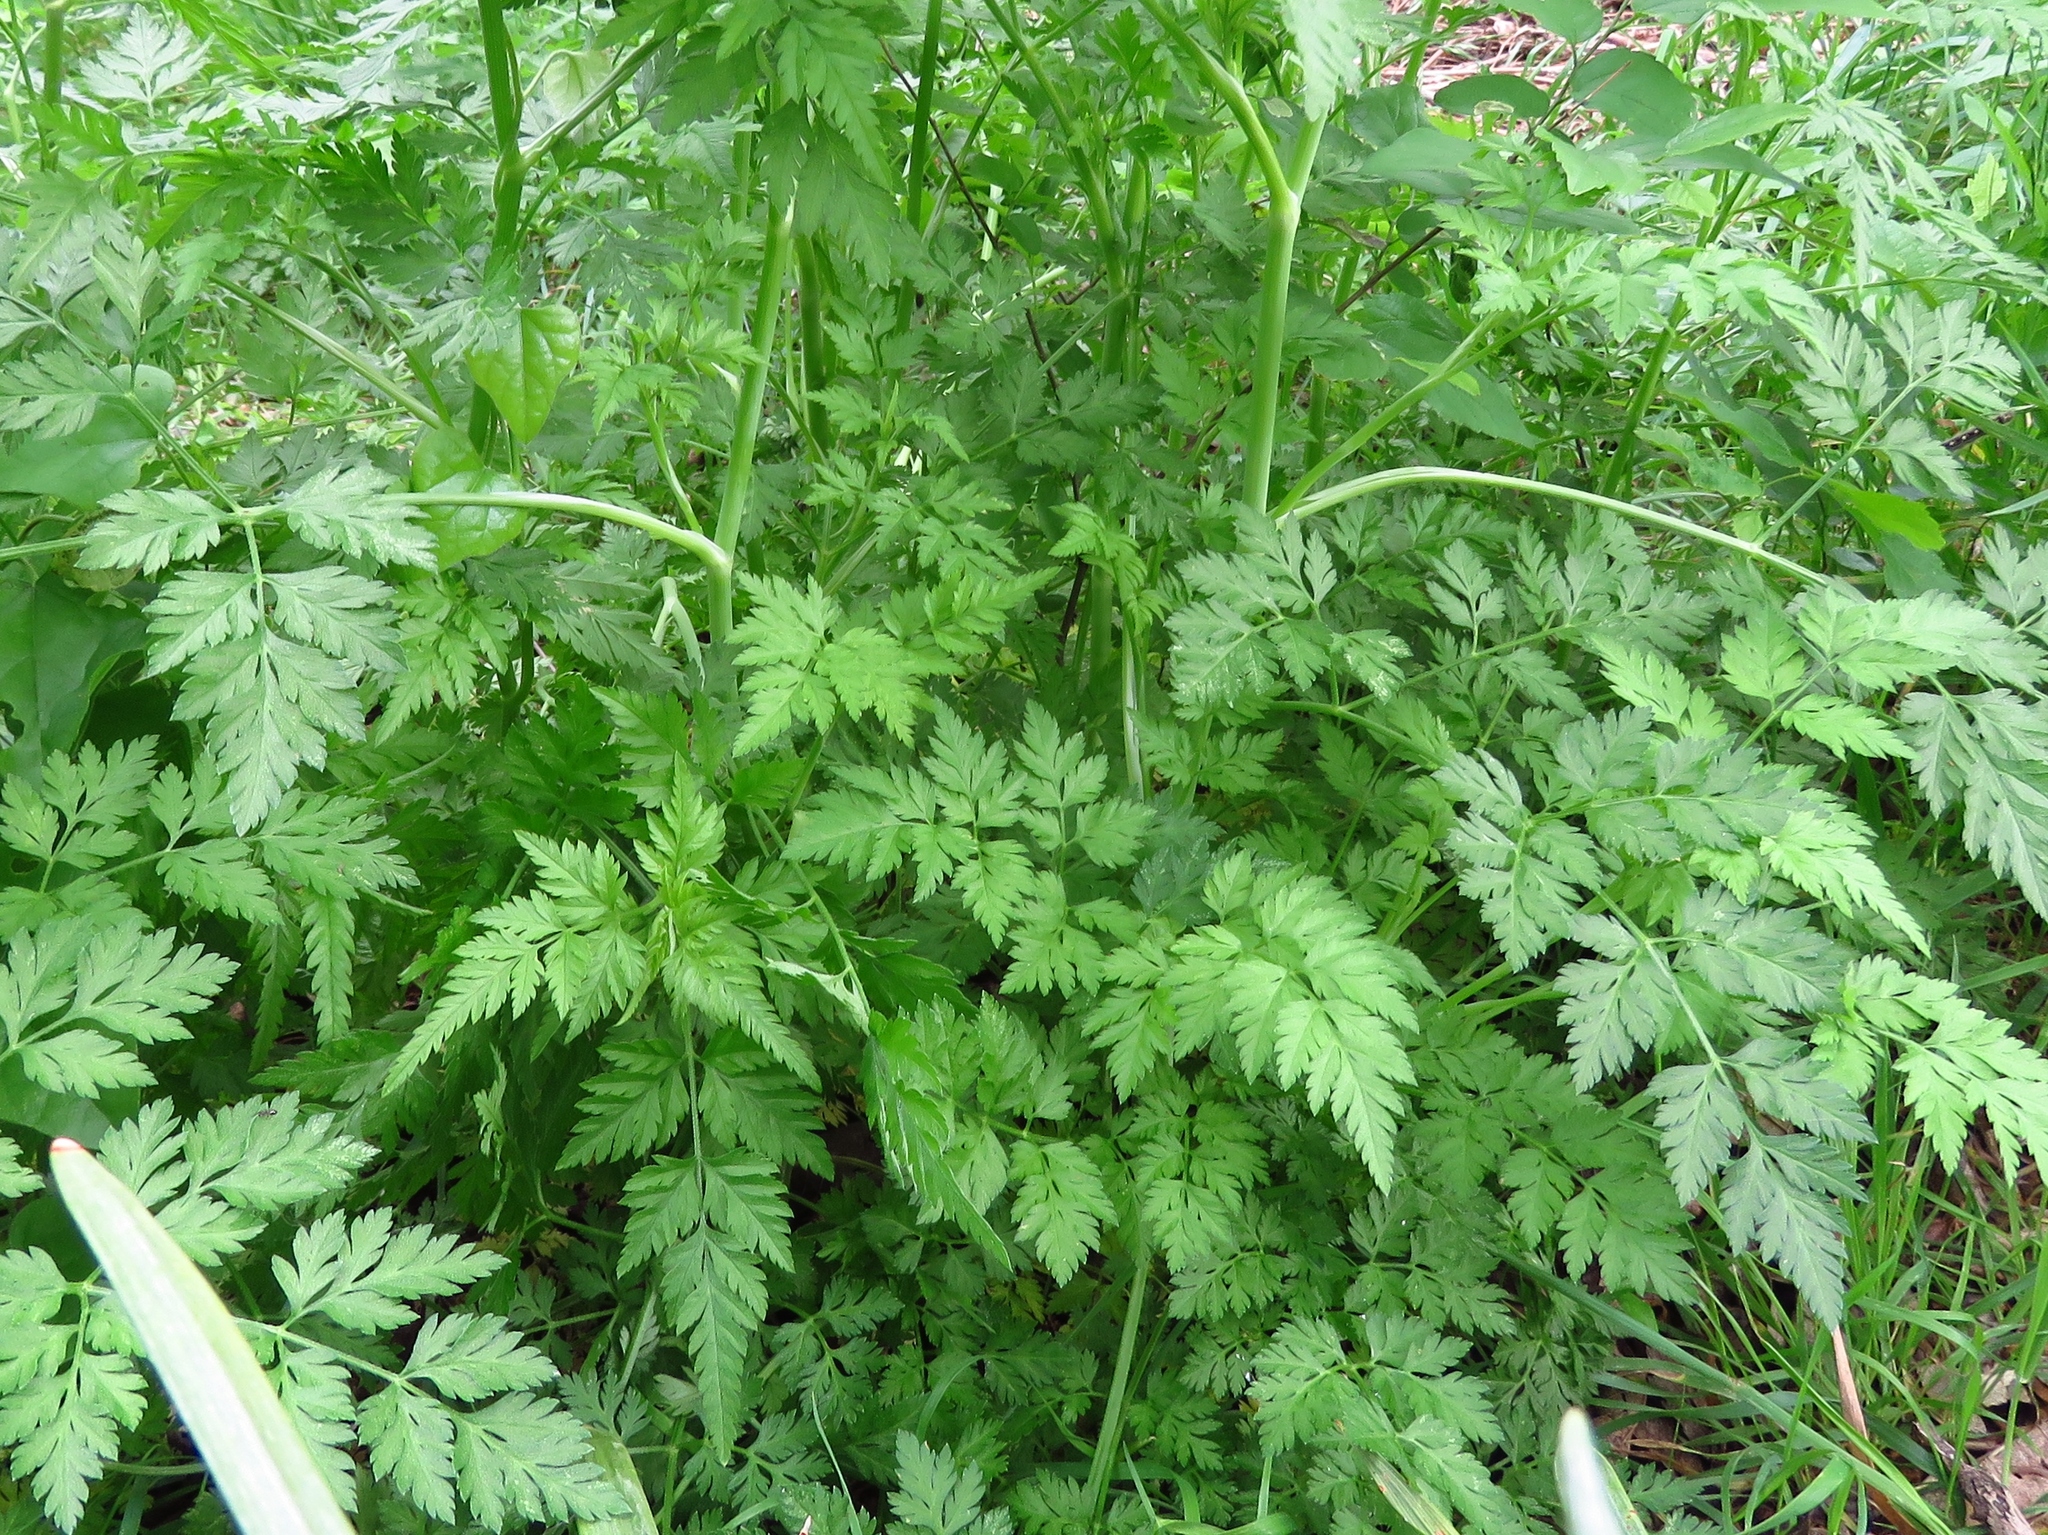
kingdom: Plantae
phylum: Tracheophyta
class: Magnoliopsida
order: Apiales
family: Apiaceae
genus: Torilis
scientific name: Torilis arvensis
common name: Spreading hedge-parsley
